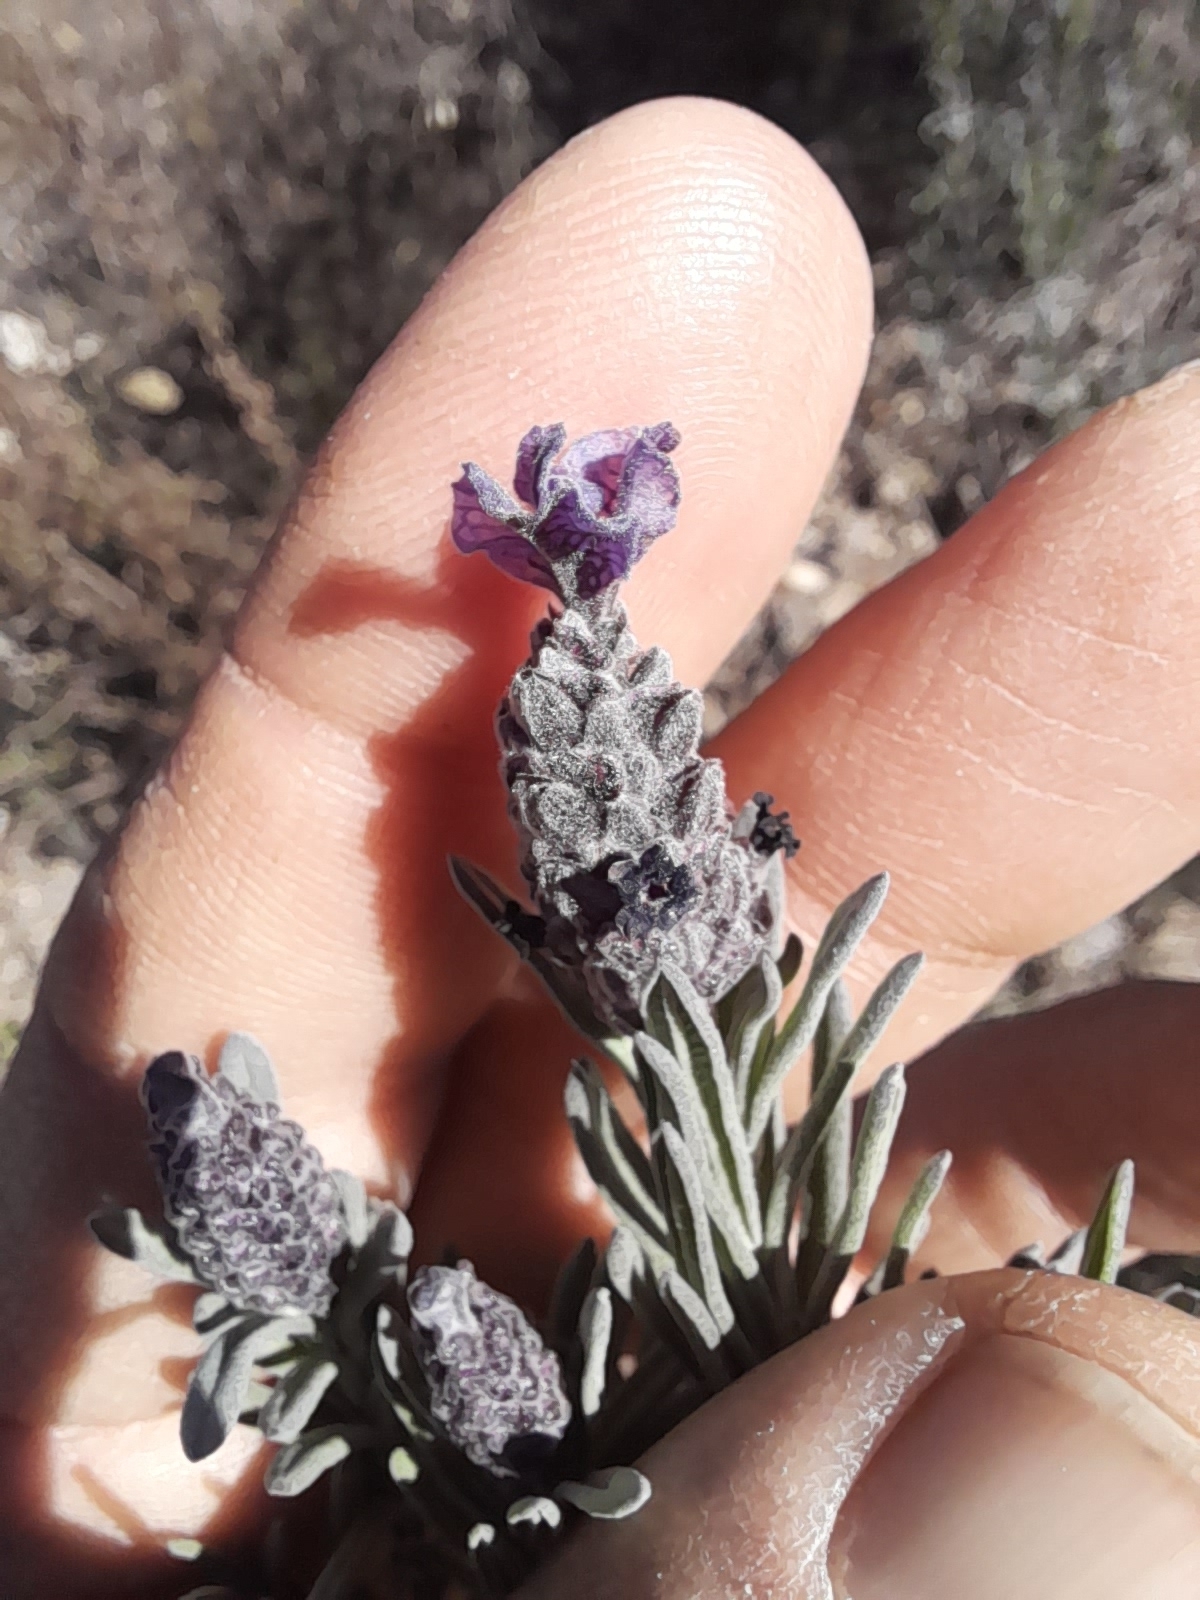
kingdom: Plantae
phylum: Tracheophyta
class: Magnoliopsida
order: Lamiales
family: Lamiaceae
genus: Lavandula
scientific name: Lavandula stoechas
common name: French lavender
